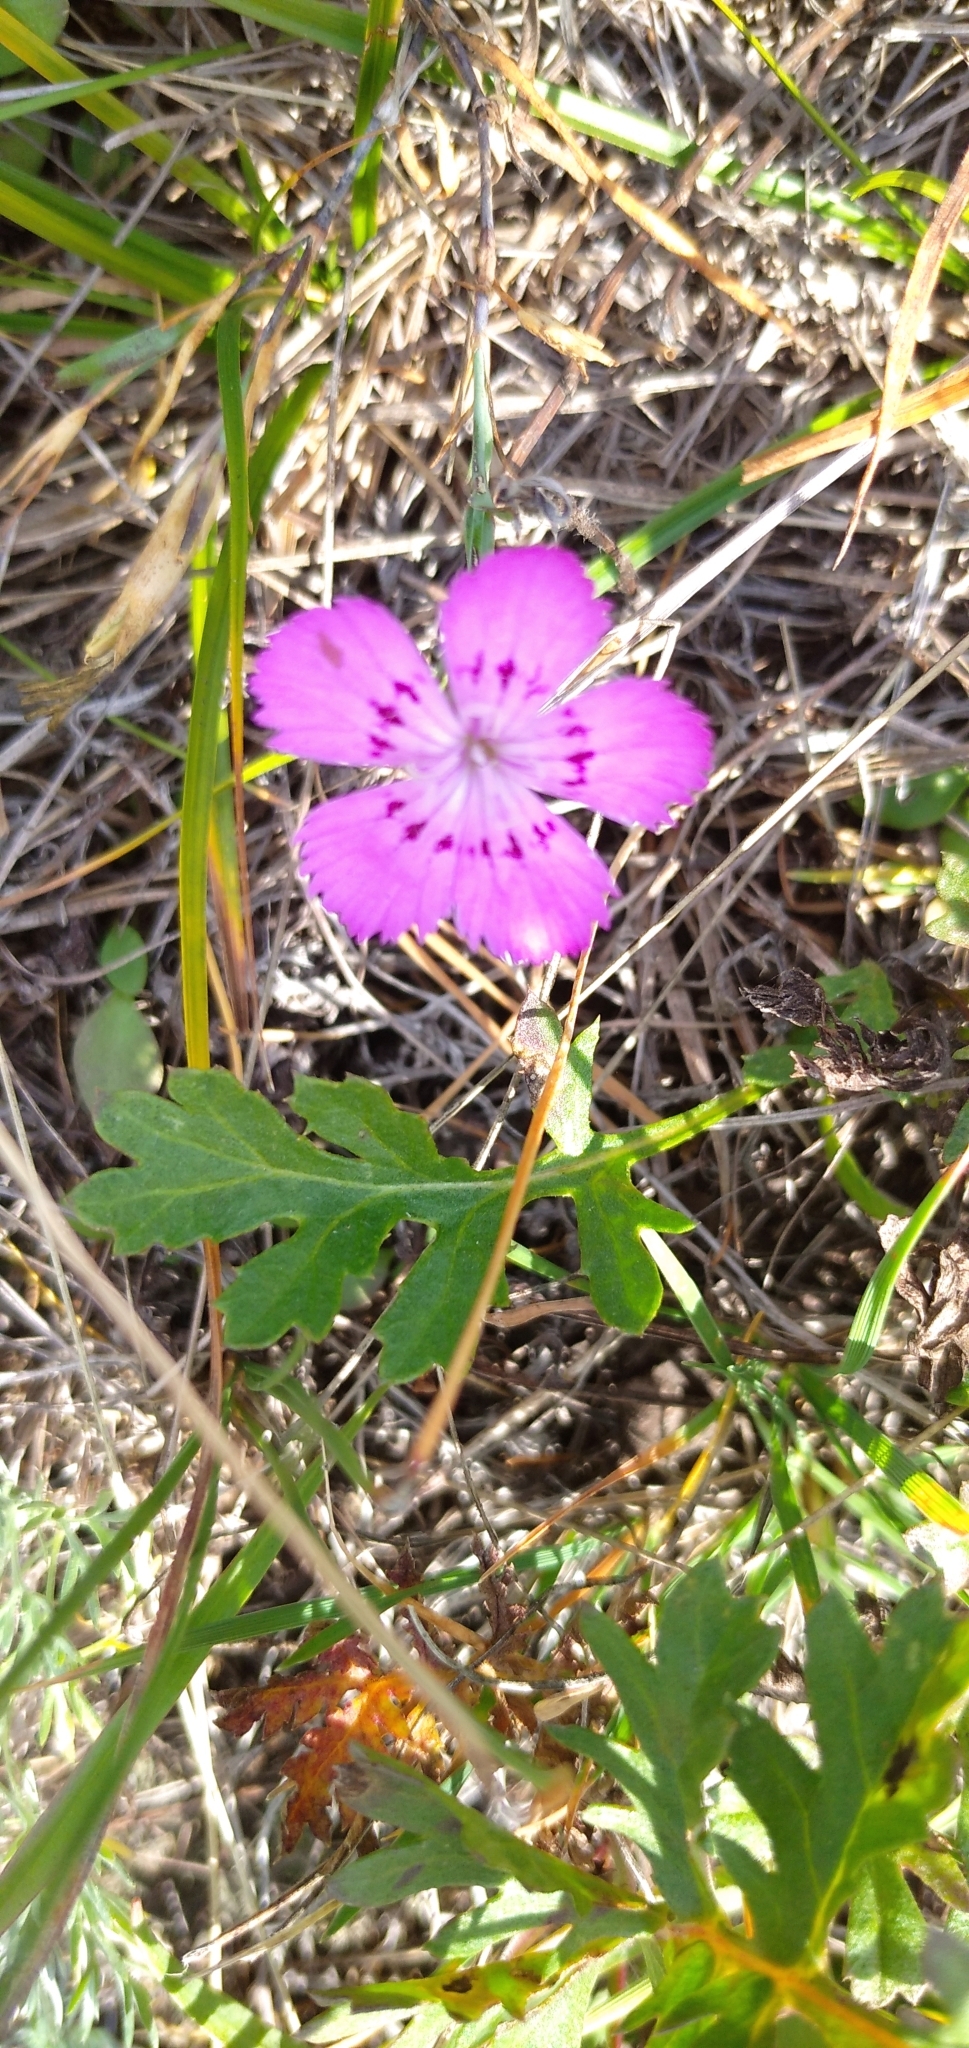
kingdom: Plantae
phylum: Tracheophyta
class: Magnoliopsida
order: Caryophyllales
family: Caryophyllaceae
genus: Dianthus
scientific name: Dianthus chinensis
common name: Rainbow pink
